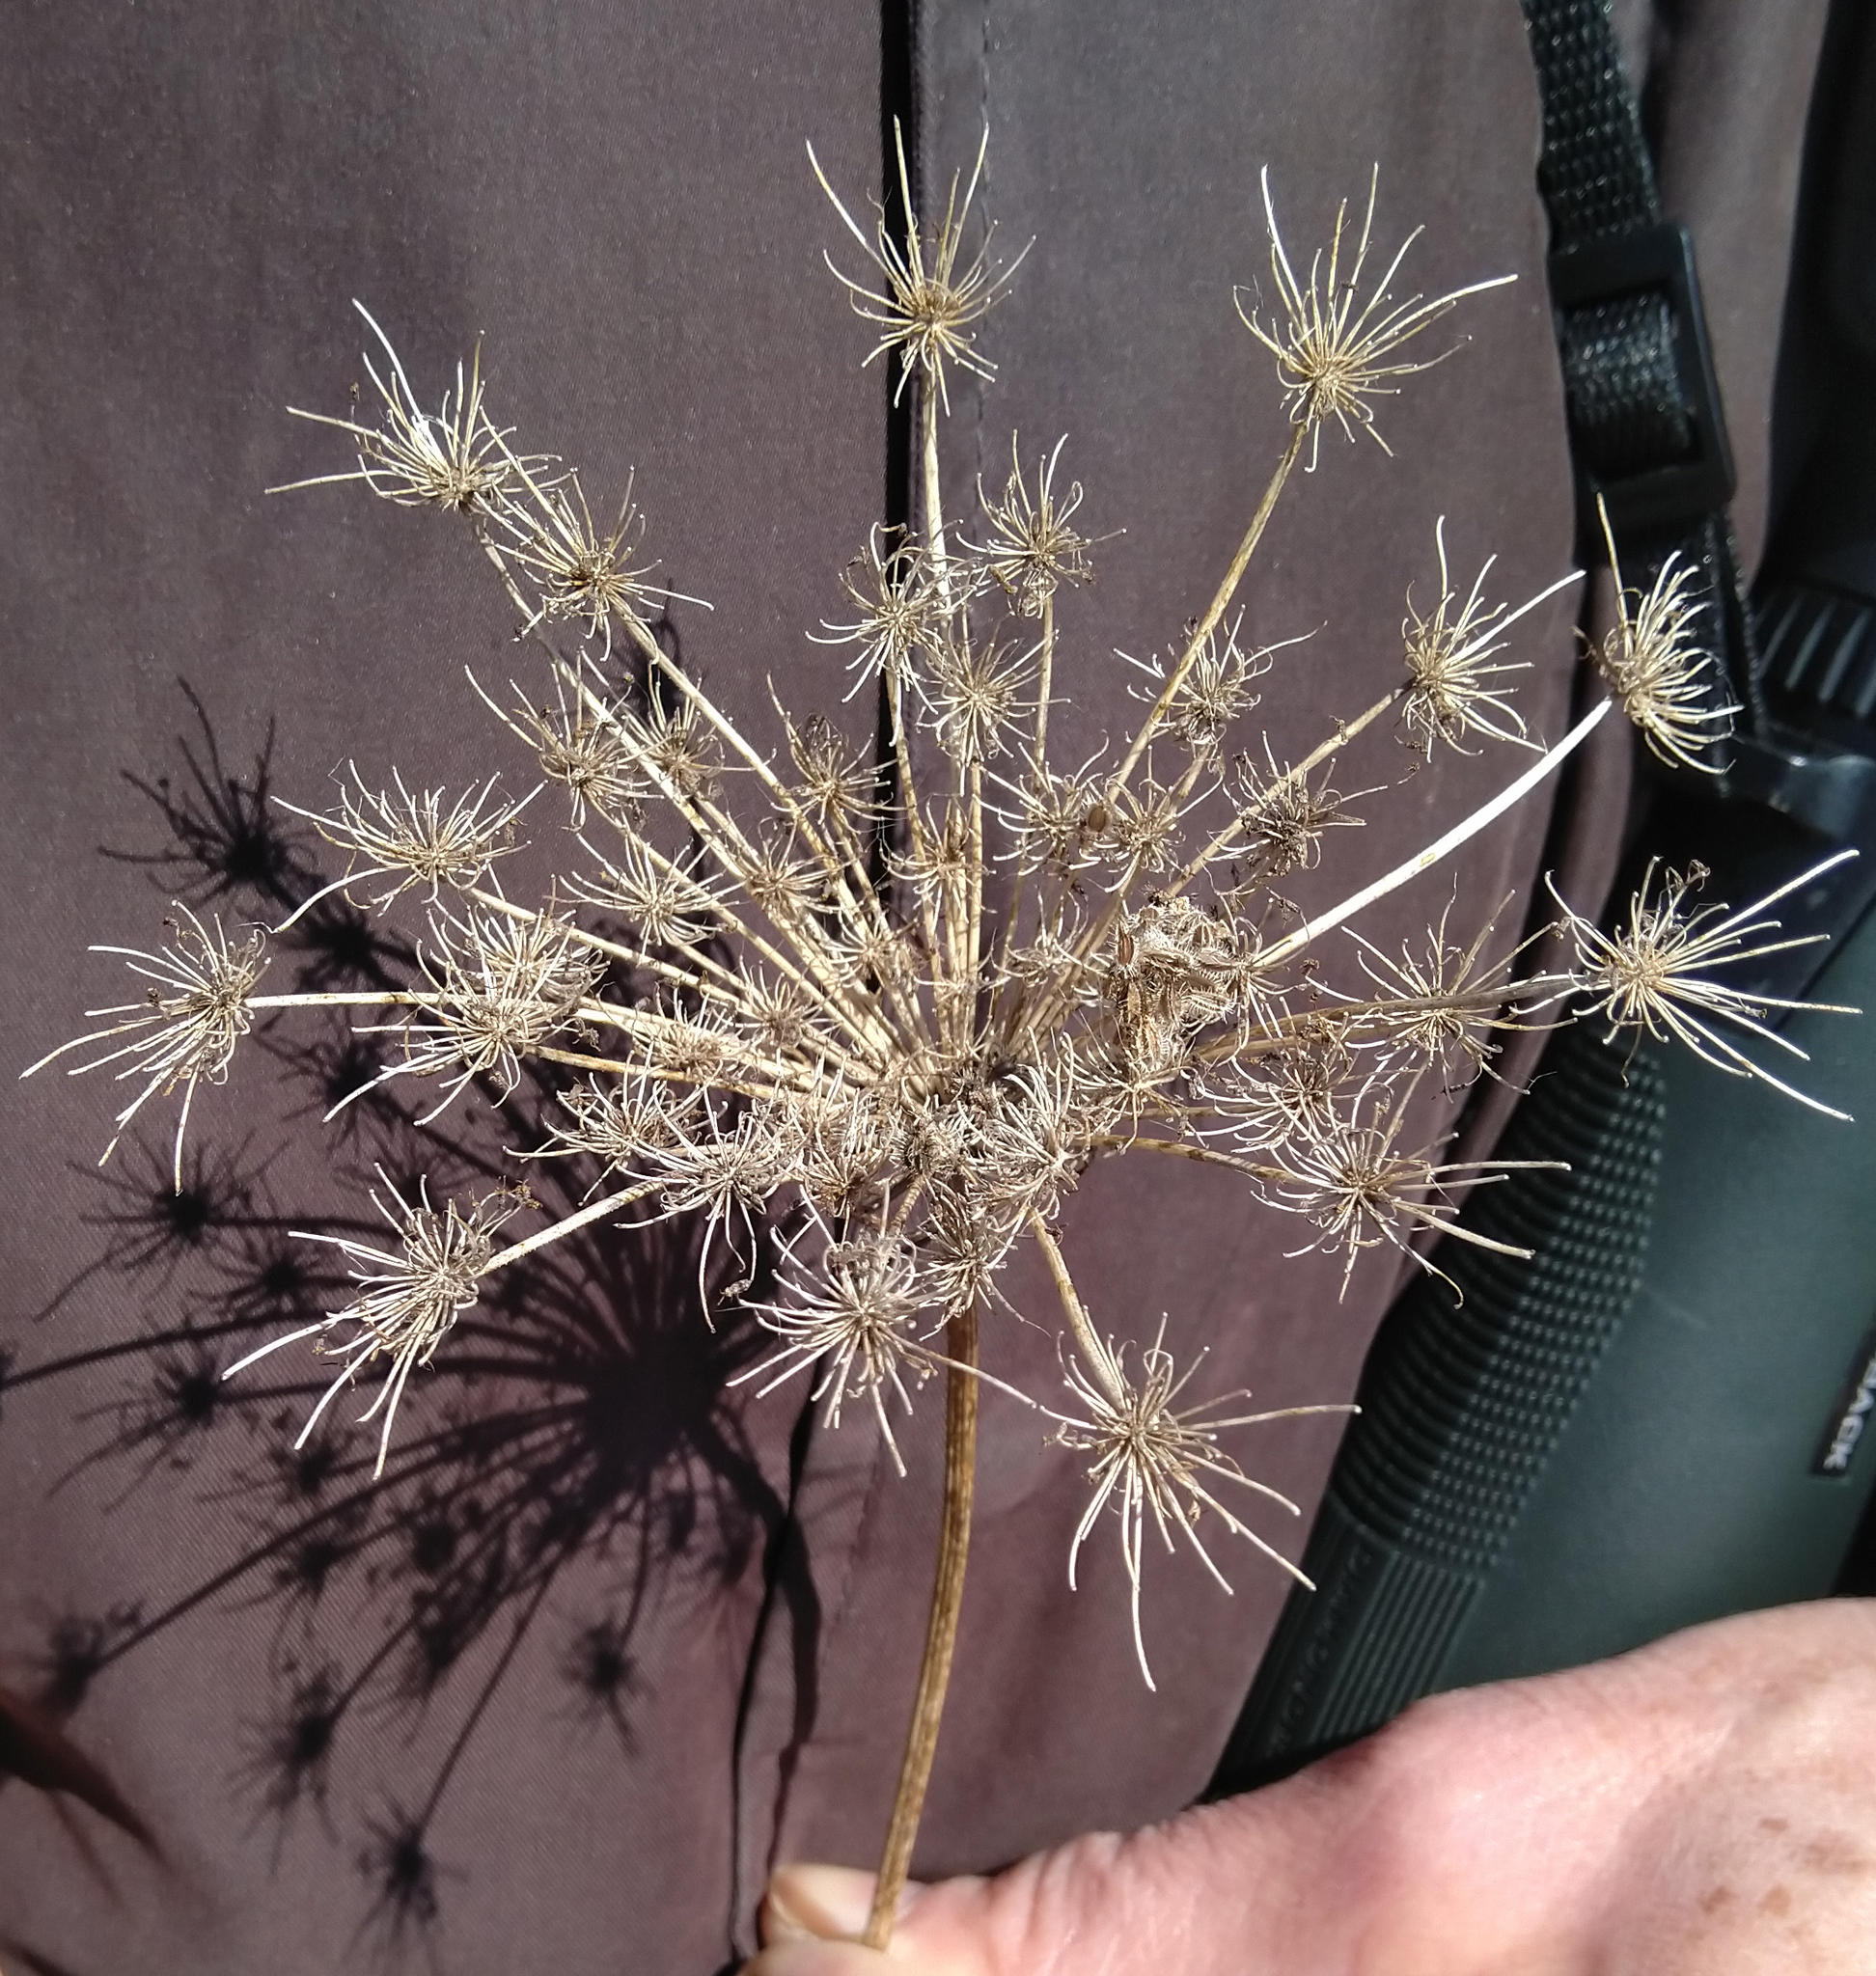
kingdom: Plantae
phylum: Tracheophyta
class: Magnoliopsida
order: Apiales
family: Apiaceae
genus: Daucus
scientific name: Daucus carota
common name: Wild carrot
